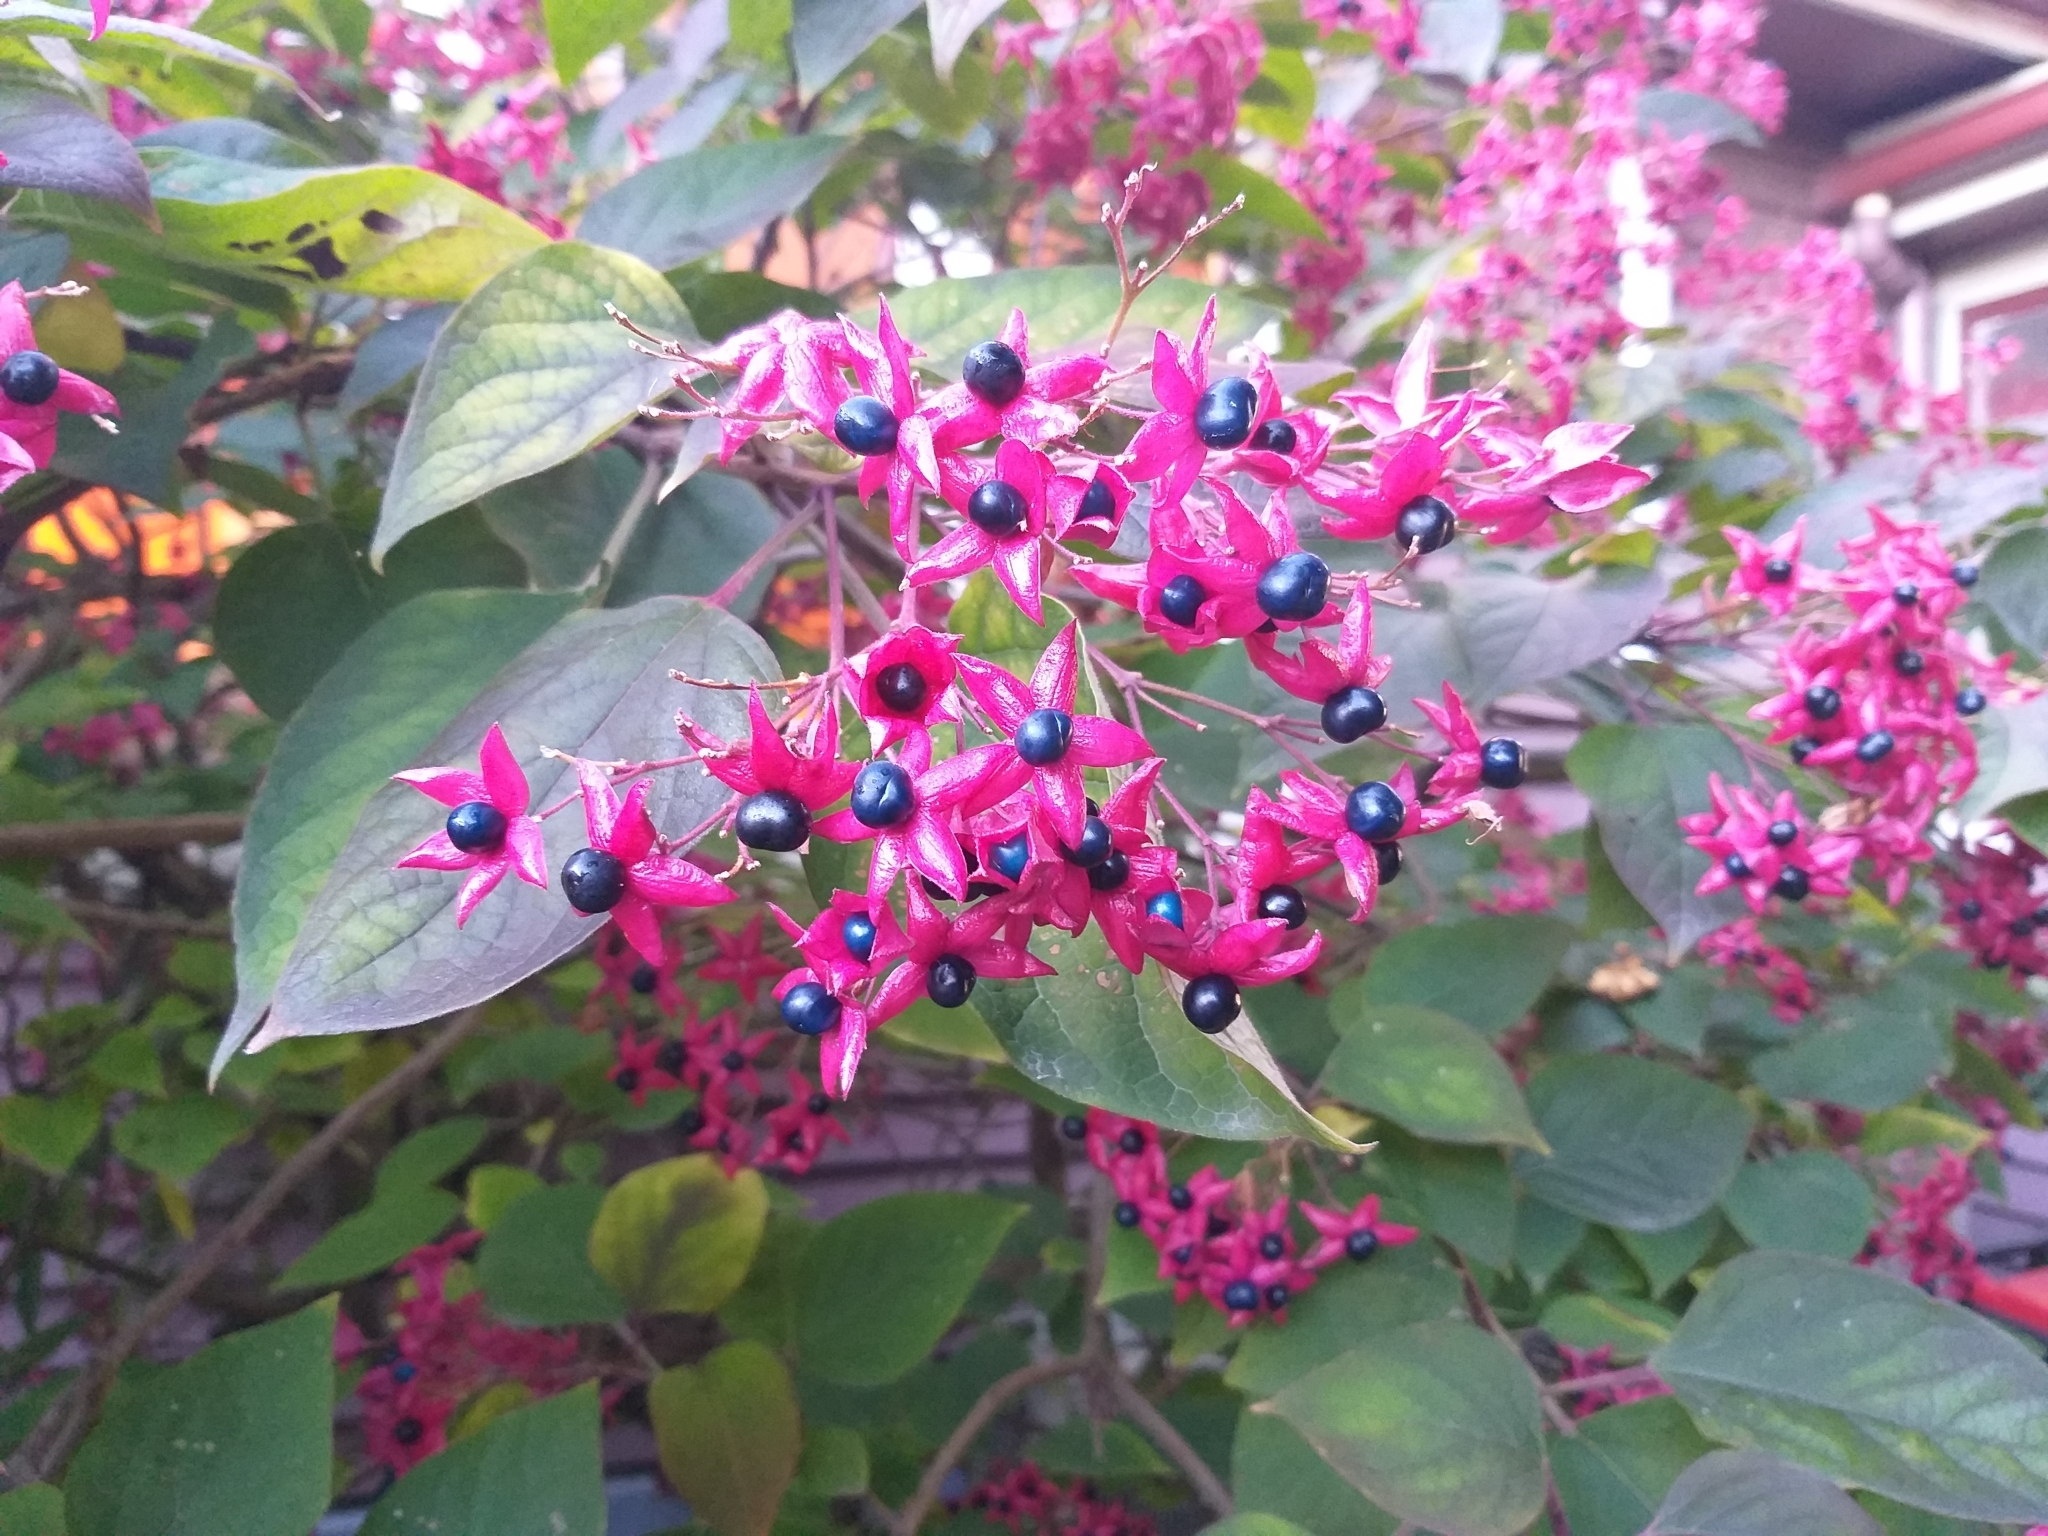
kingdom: Plantae
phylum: Tracheophyta
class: Magnoliopsida
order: Lamiales
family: Lamiaceae
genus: Clerodendrum
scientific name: Clerodendrum trichotomum
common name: Harlequin glorybower
